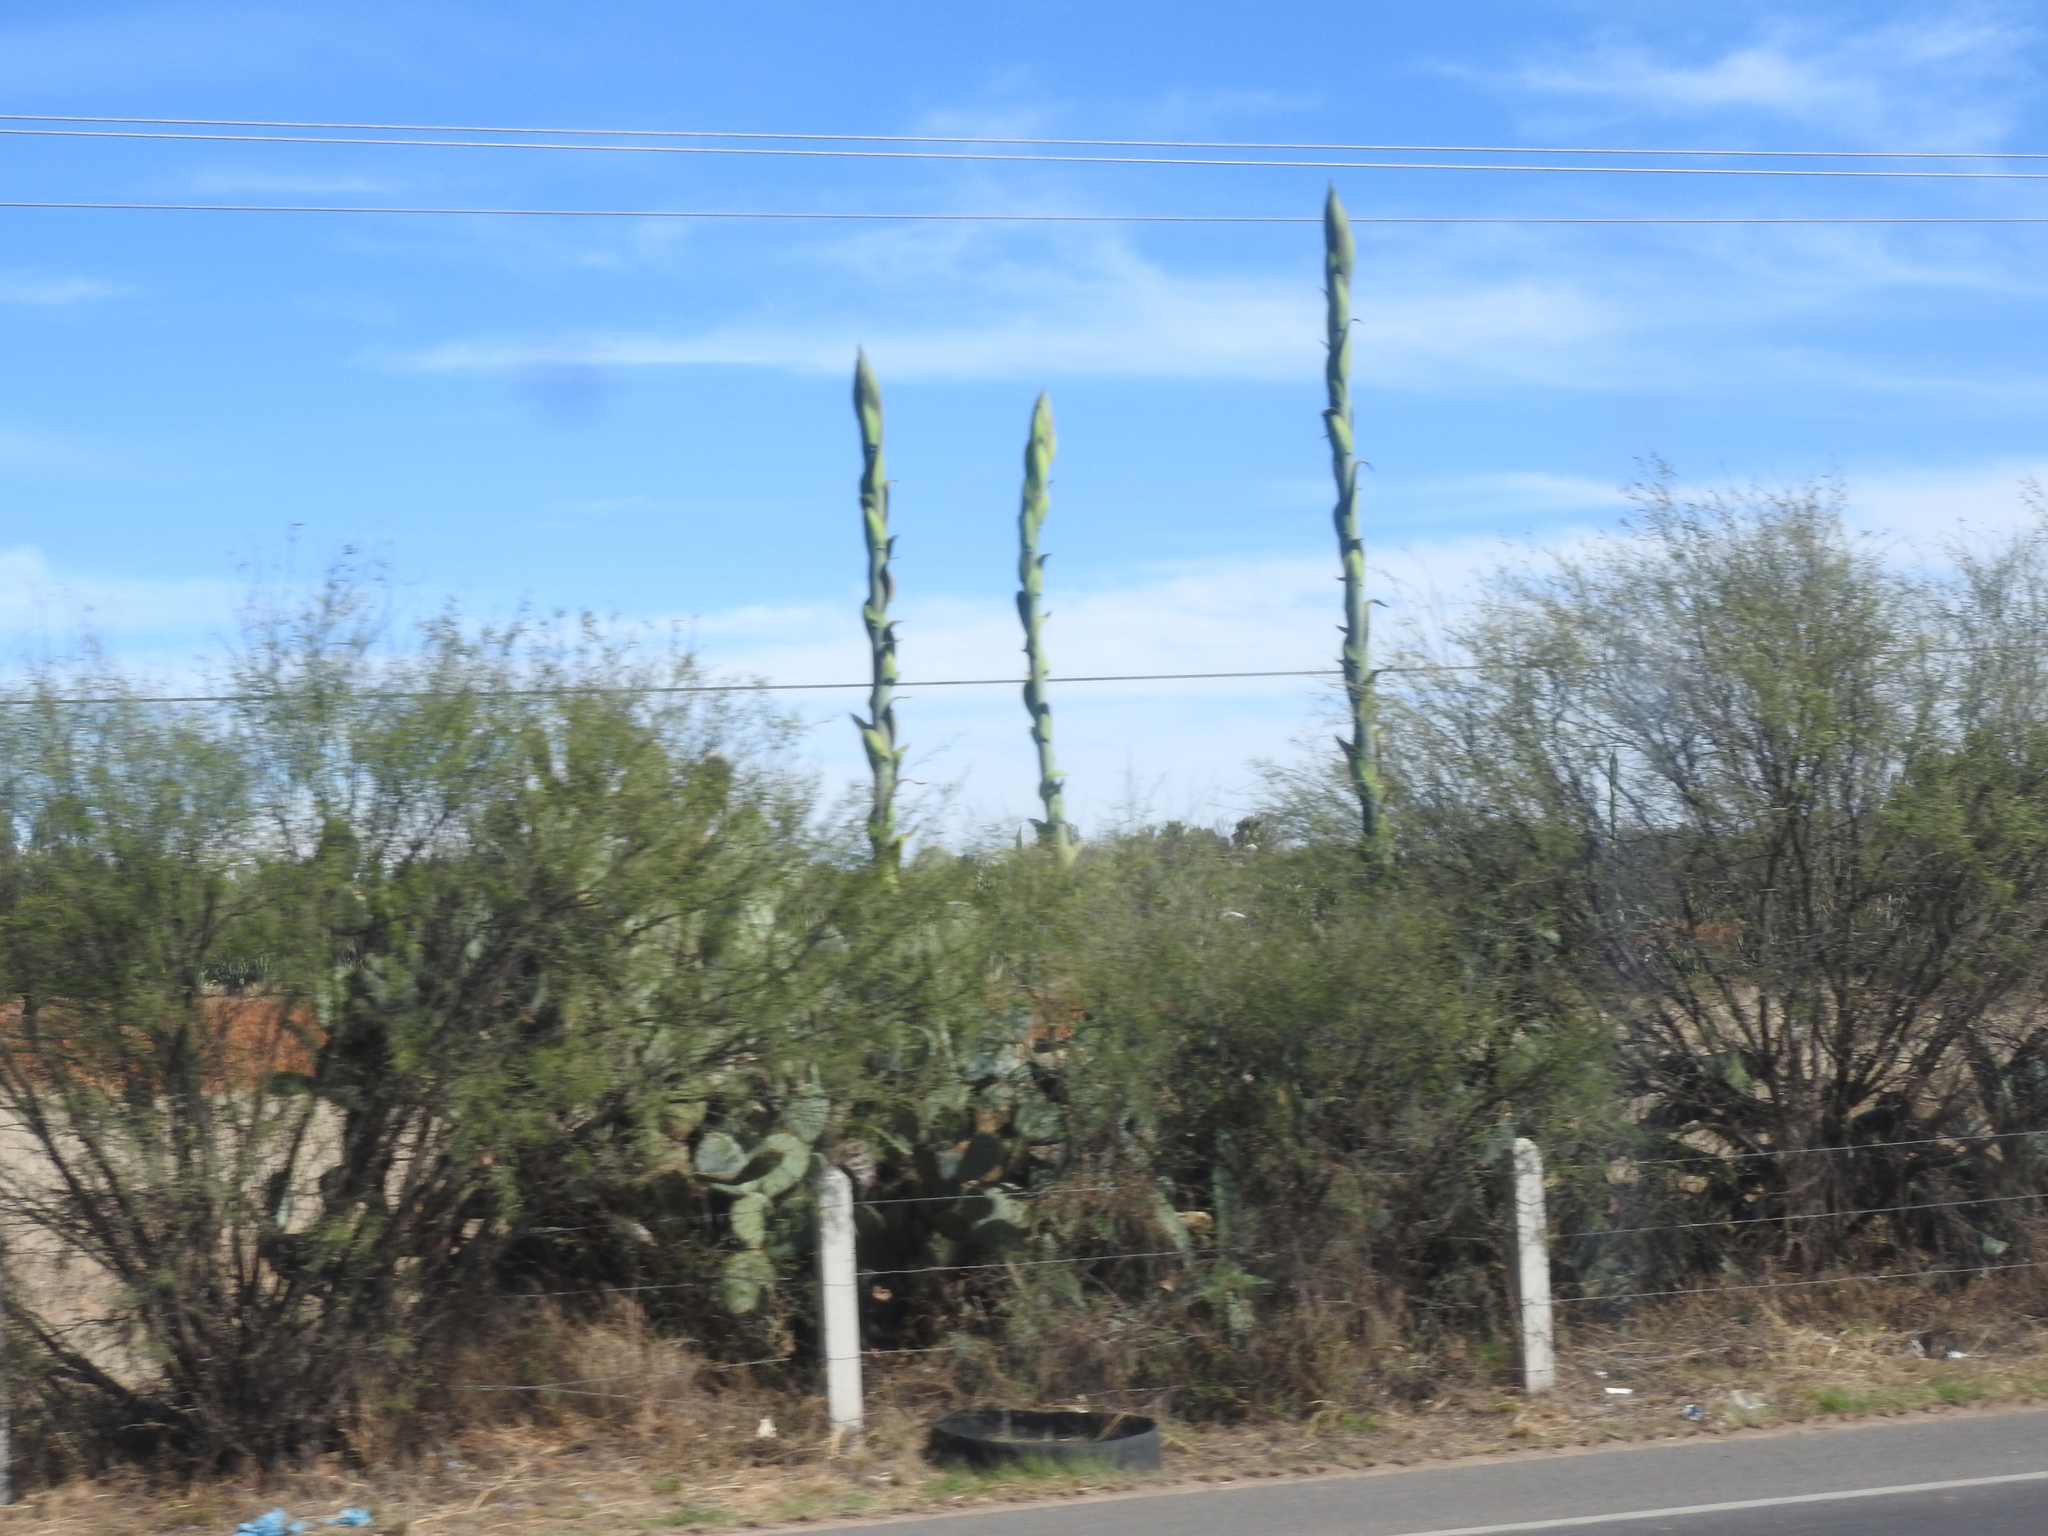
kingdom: Plantae
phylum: Tracheophyta
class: Liliopsida
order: Asparagales
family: Asparagaceae
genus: Agave
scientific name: Agave salmiana
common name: Pulque agave
